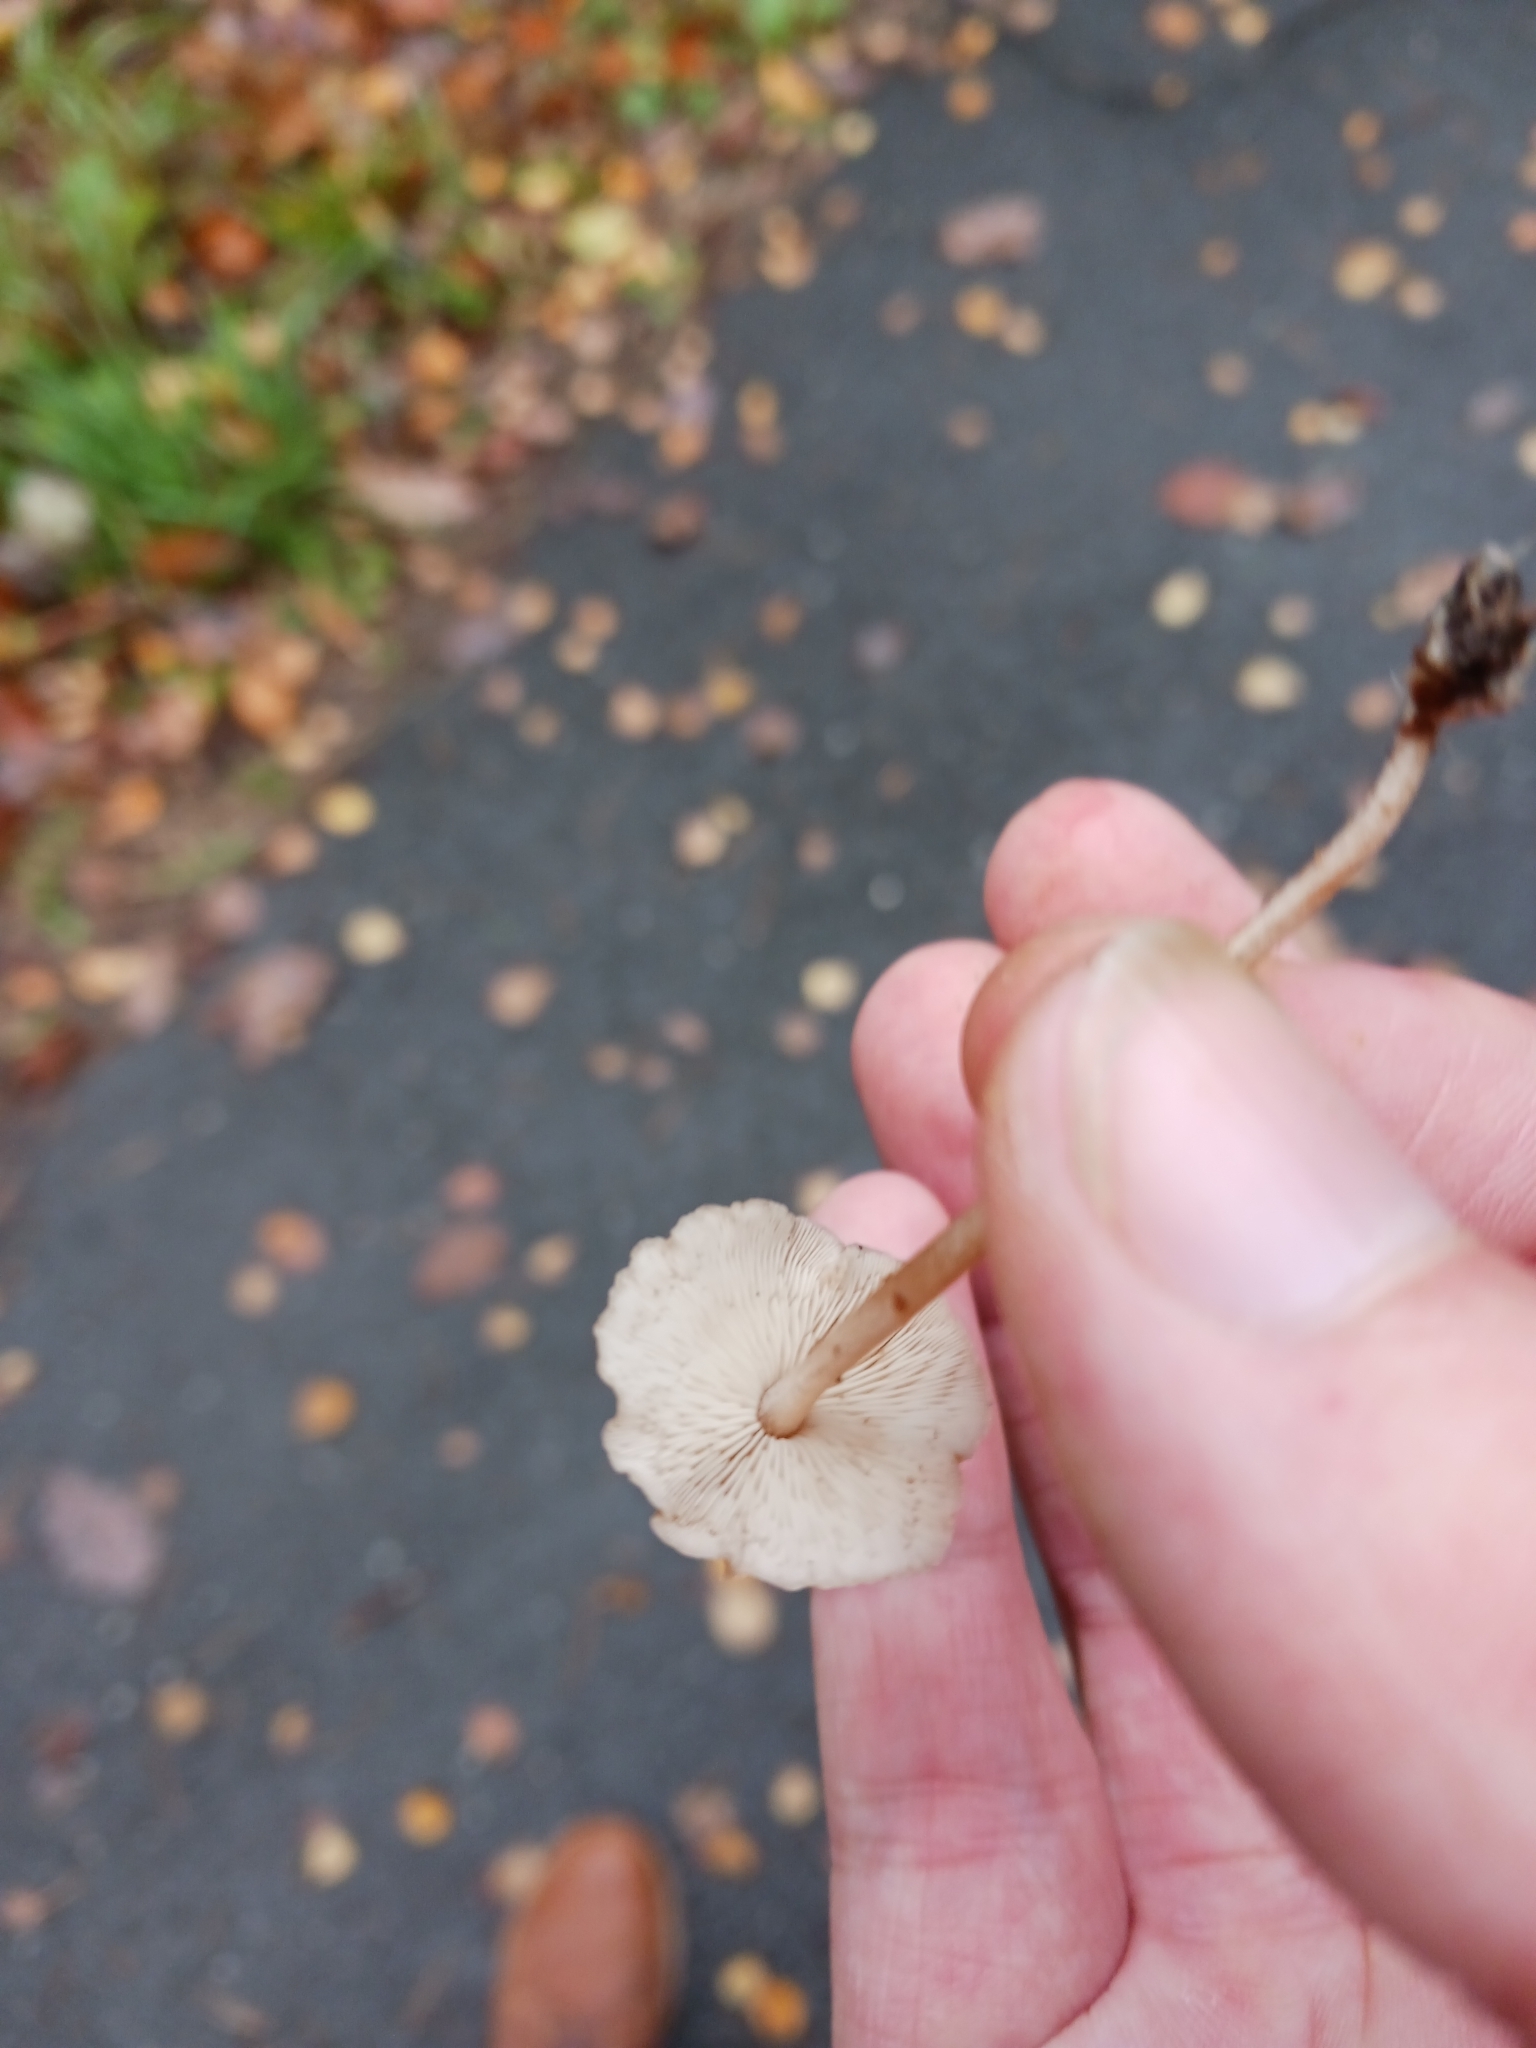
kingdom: Fungi
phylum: Basidiomycota
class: Agaricomycetes
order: Agaricales
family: Omphalotaceae
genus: Collybiopsis
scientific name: Collybiopsis confluens
